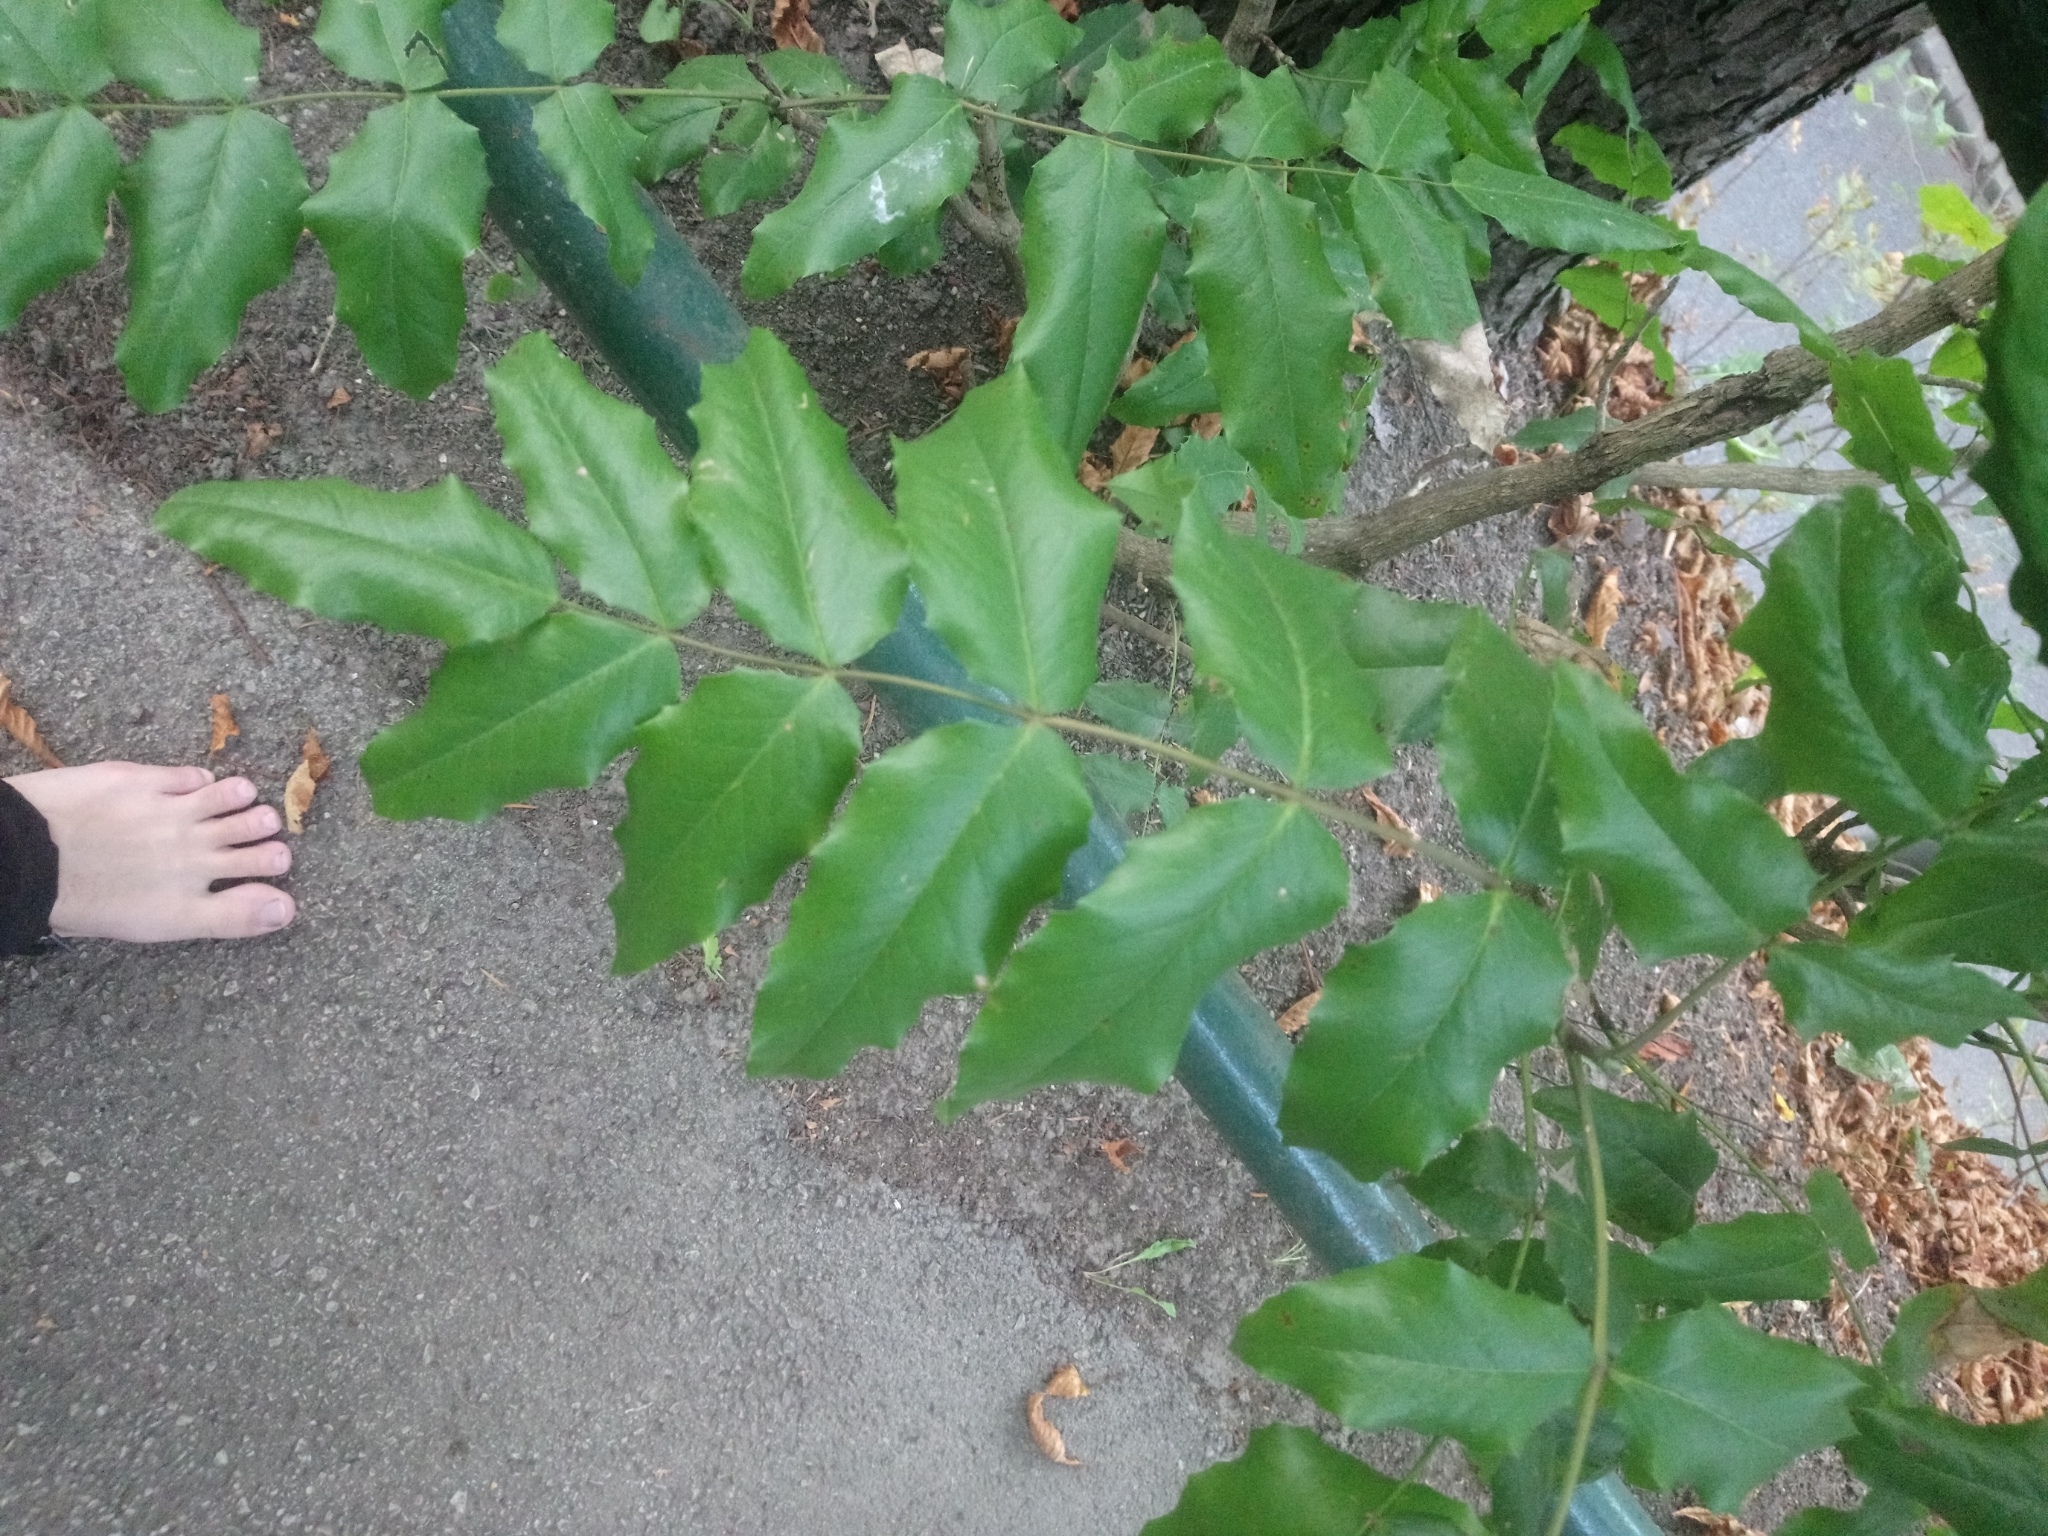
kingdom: Plantae
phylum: Tracheophyta
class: Magnoliopsida
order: Ranunculales
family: Berberidaceae
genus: Mahonia
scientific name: Mahonia aquifolium
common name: Oregon-grape
